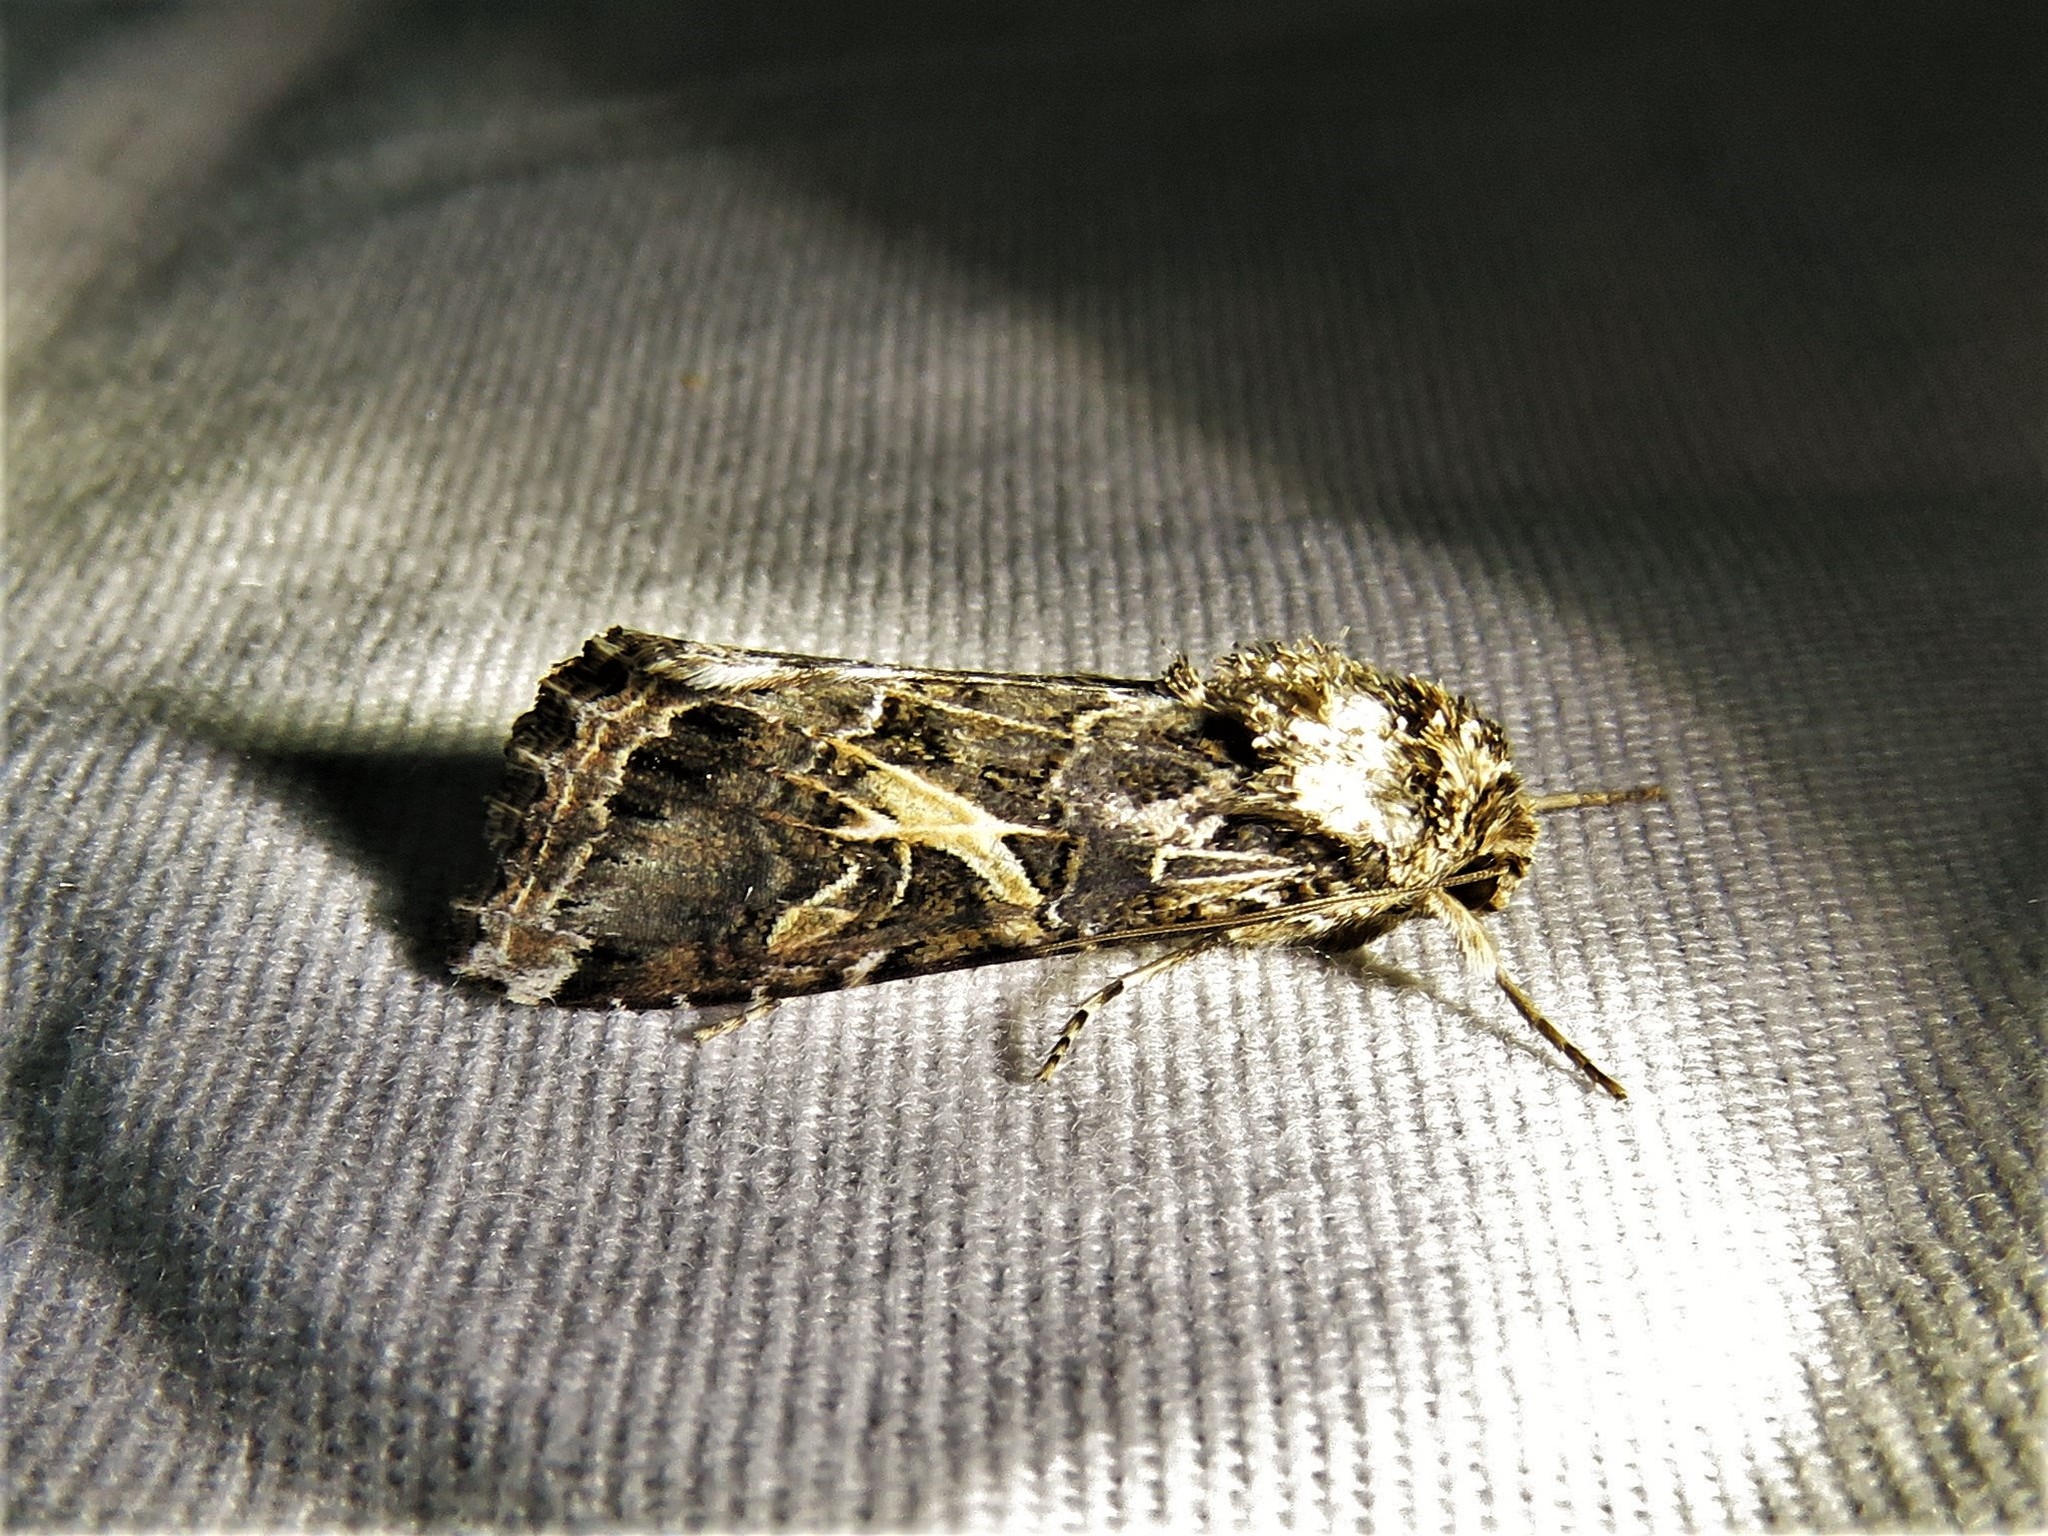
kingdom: Animalia
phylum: Arthropoda
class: Insecta
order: Lepidoptera
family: Noctuidae
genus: Spodoptera
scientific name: Spodoptera ornithogalli
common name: Yellow-striped armyworm
